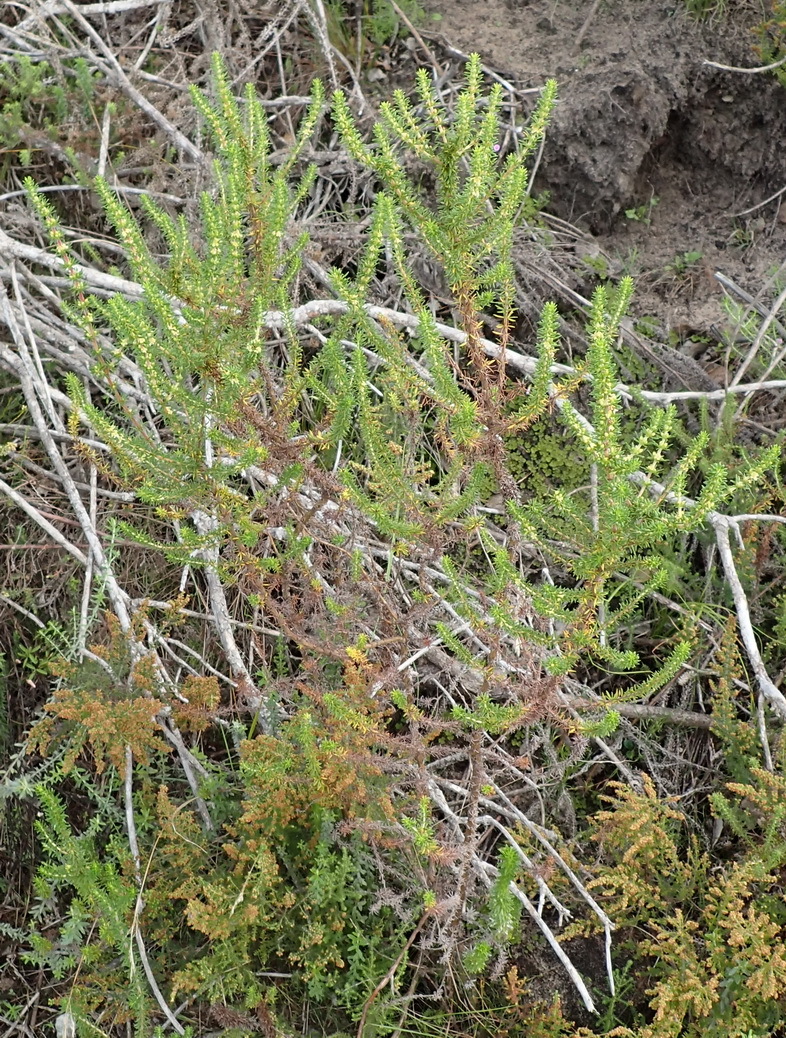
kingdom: Plantae
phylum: Tracheophyta
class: Magnoliopsida
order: Gentianales
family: Rubiaceae
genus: Anthospermum
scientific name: Anthospermum aethiopicum
